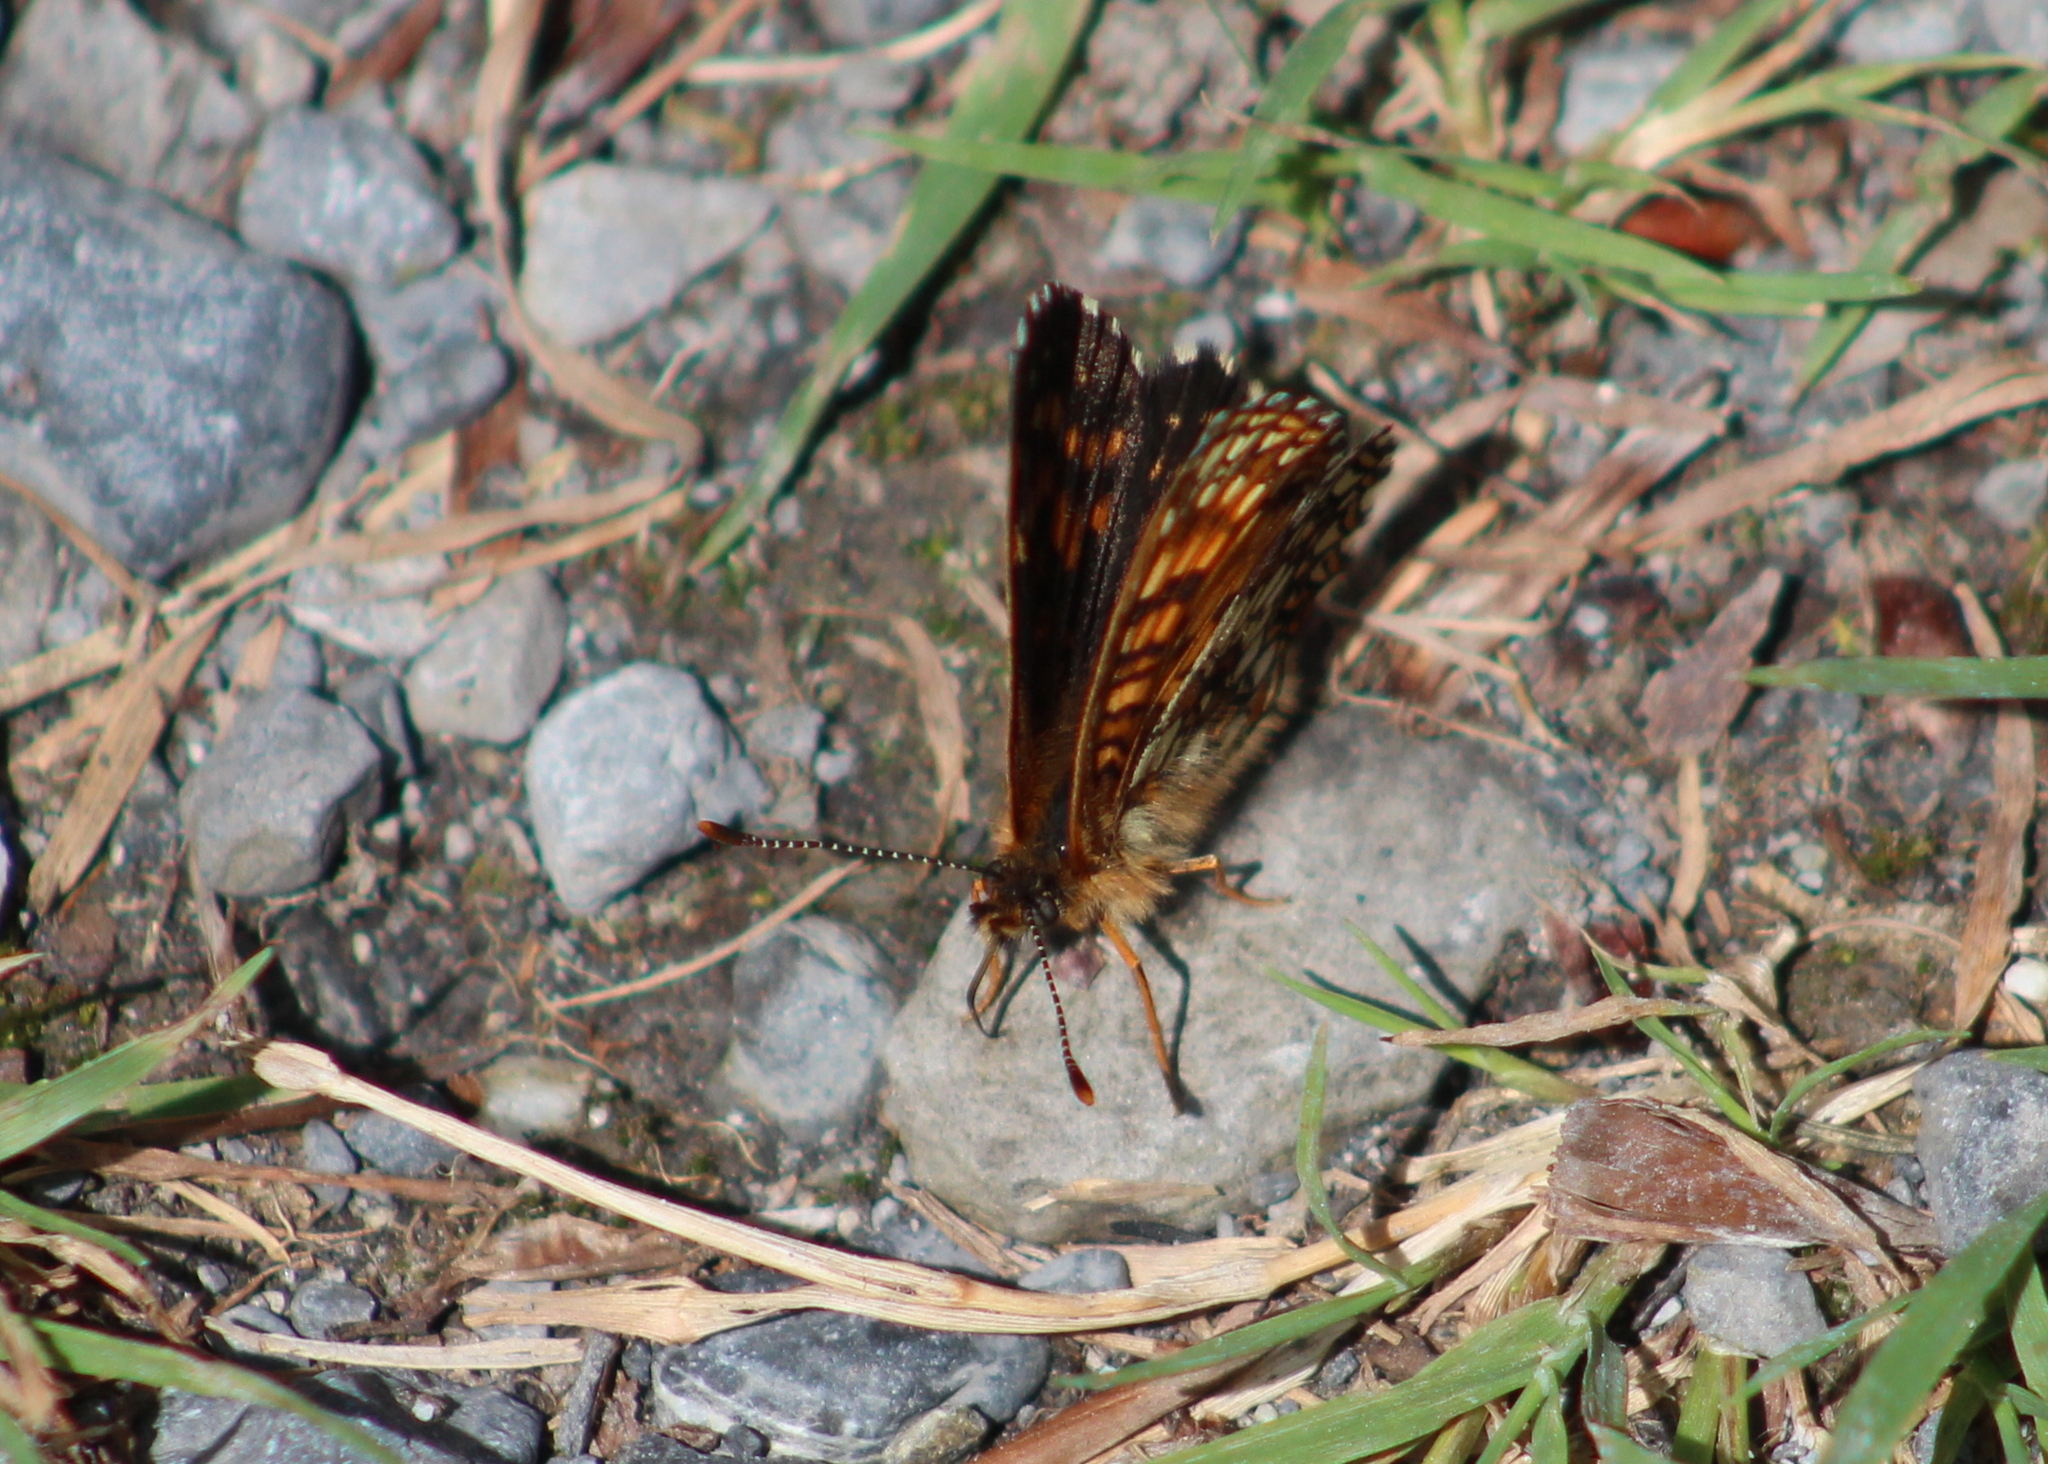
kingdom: Animalia
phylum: Arthropoda
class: Insecta
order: Lepidoptera
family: Nymphalidae
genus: Melitaea
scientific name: Melitaea diamina
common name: False heath fritillary
